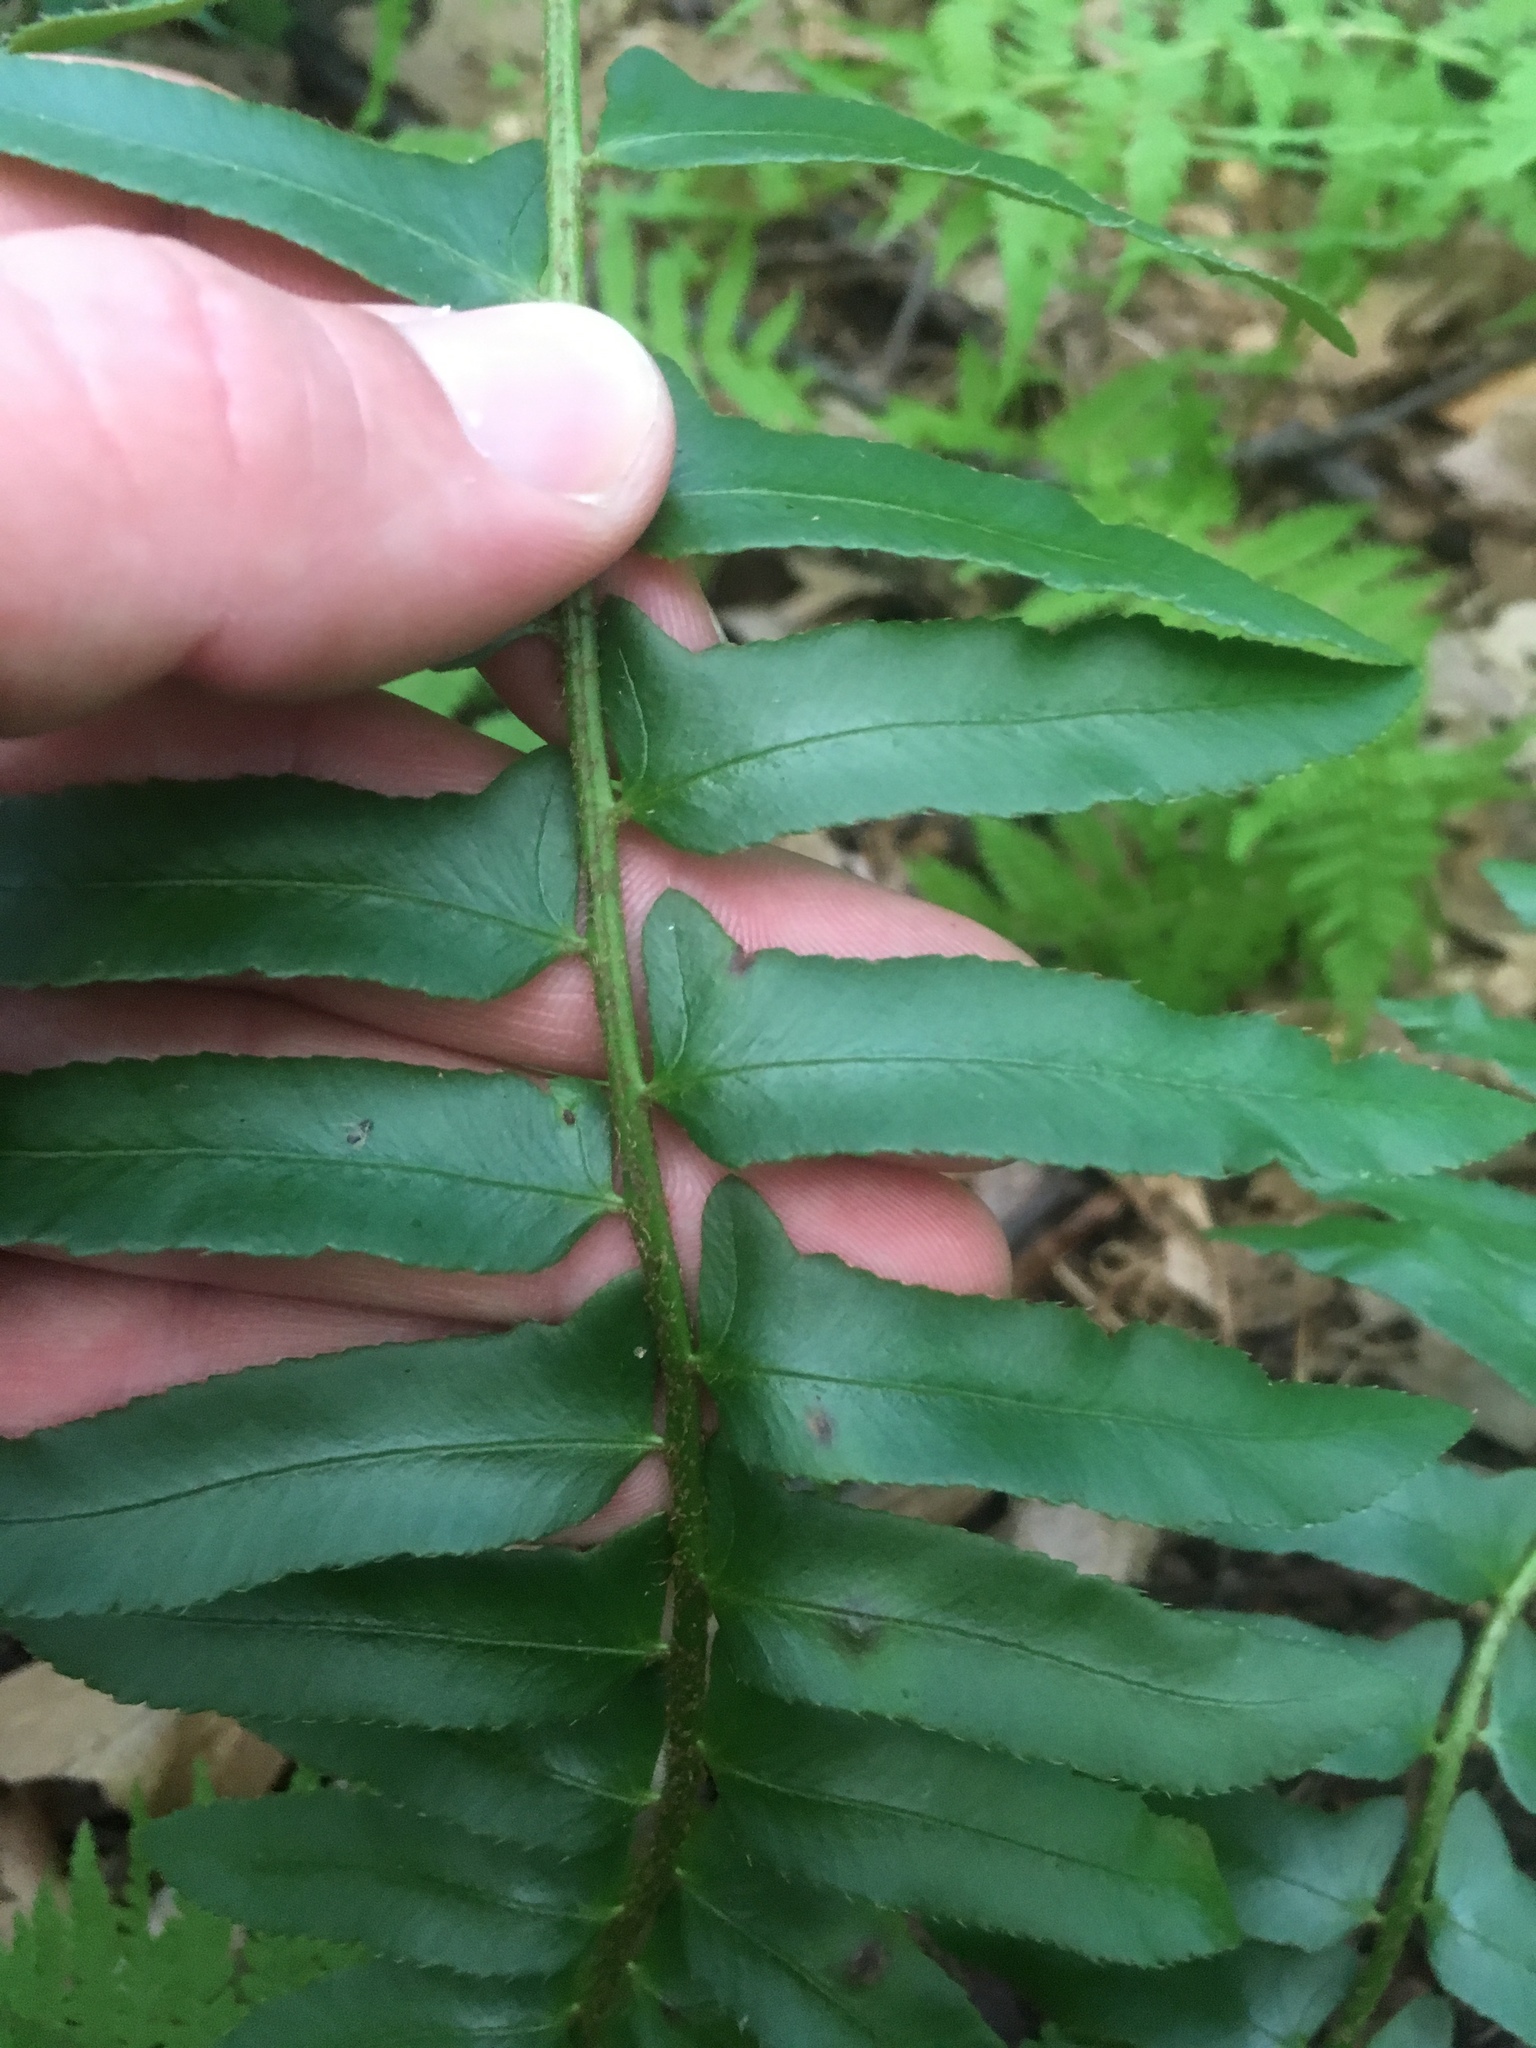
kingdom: Plantae
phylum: Tracheophyta
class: Polypodiopsida
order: Polypodiales
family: Dryopteridaceae
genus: Polystichum
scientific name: Polystichum acrostichoides
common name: Christmas fern
